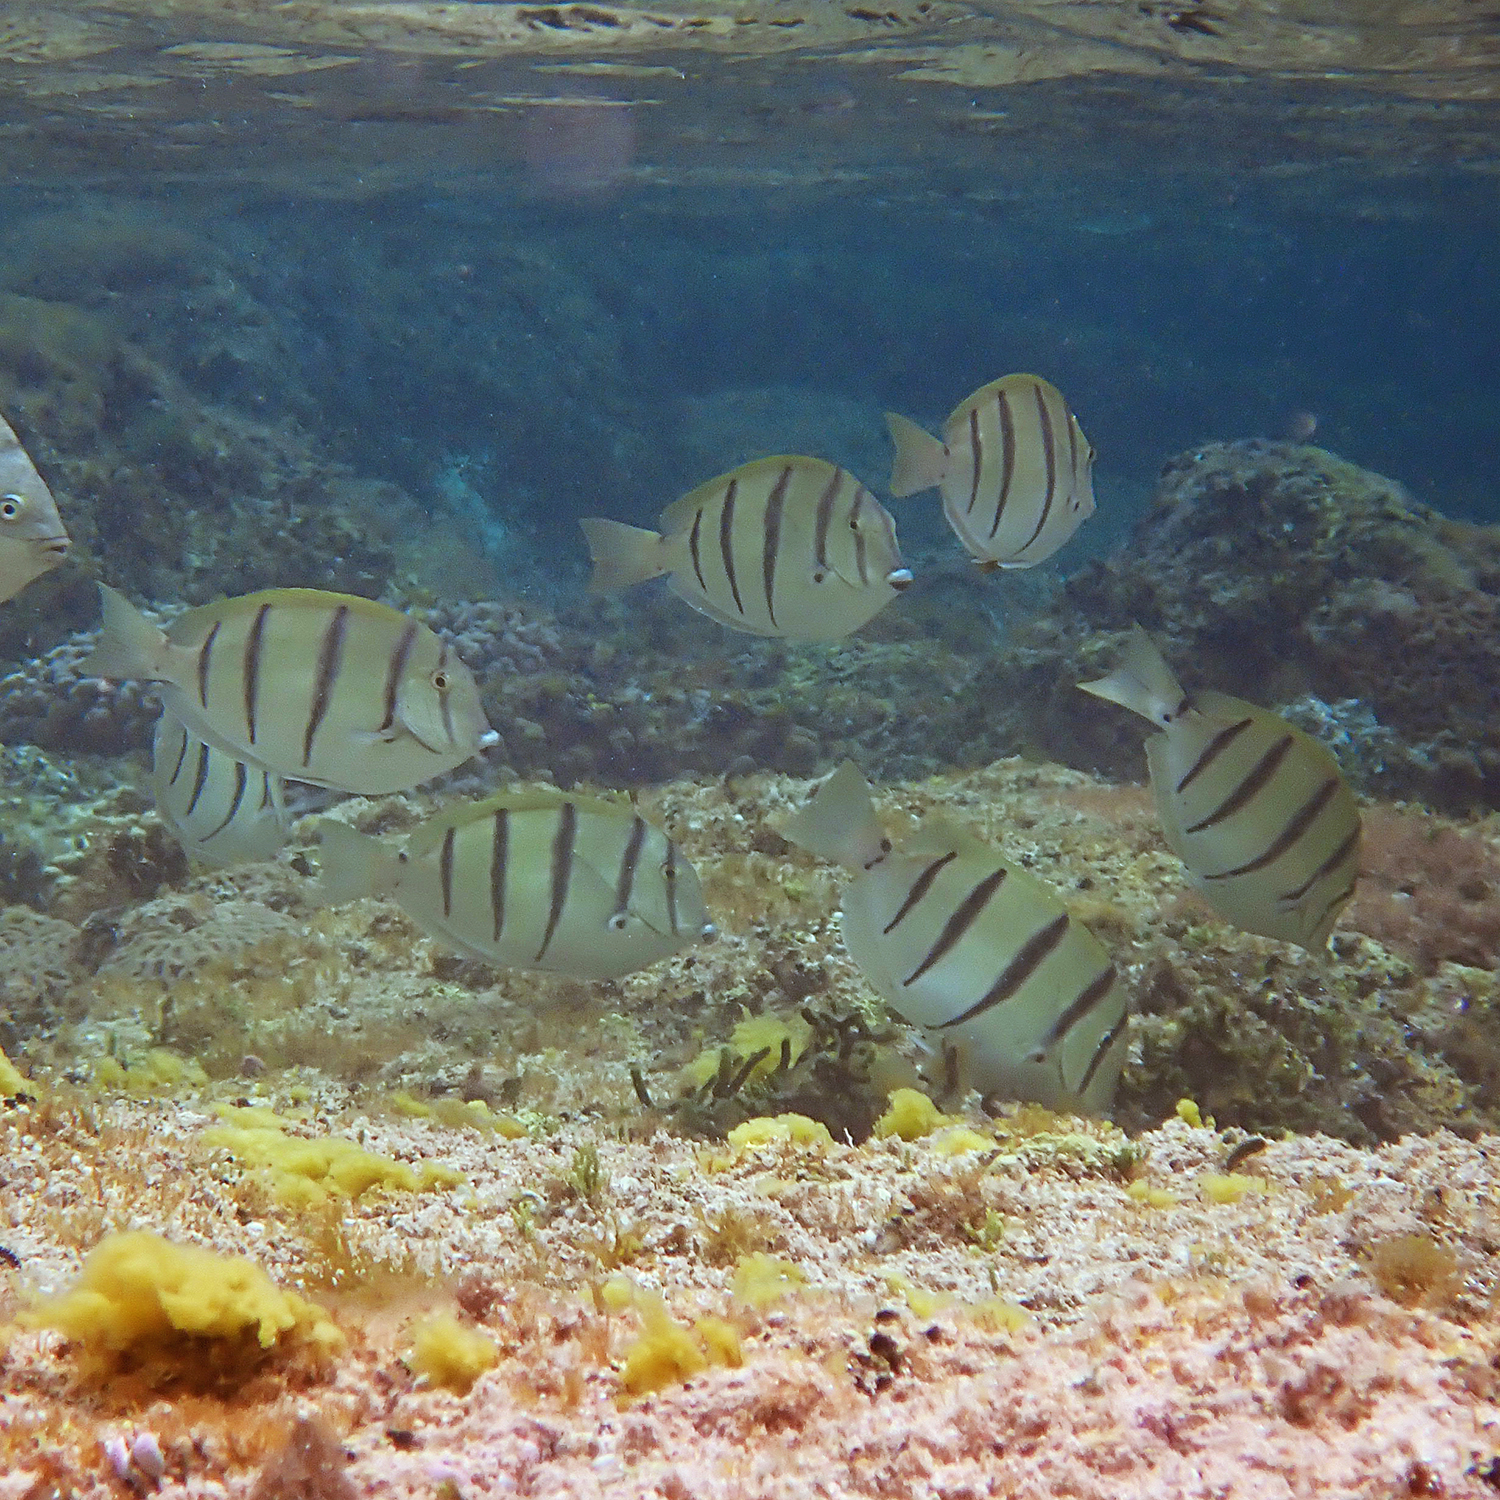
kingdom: Animalia
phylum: Chordata
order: Perciformes
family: Acanthuridae
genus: Acanthurus
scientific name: Acanthurus triostegus
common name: Convict surgeonfish
